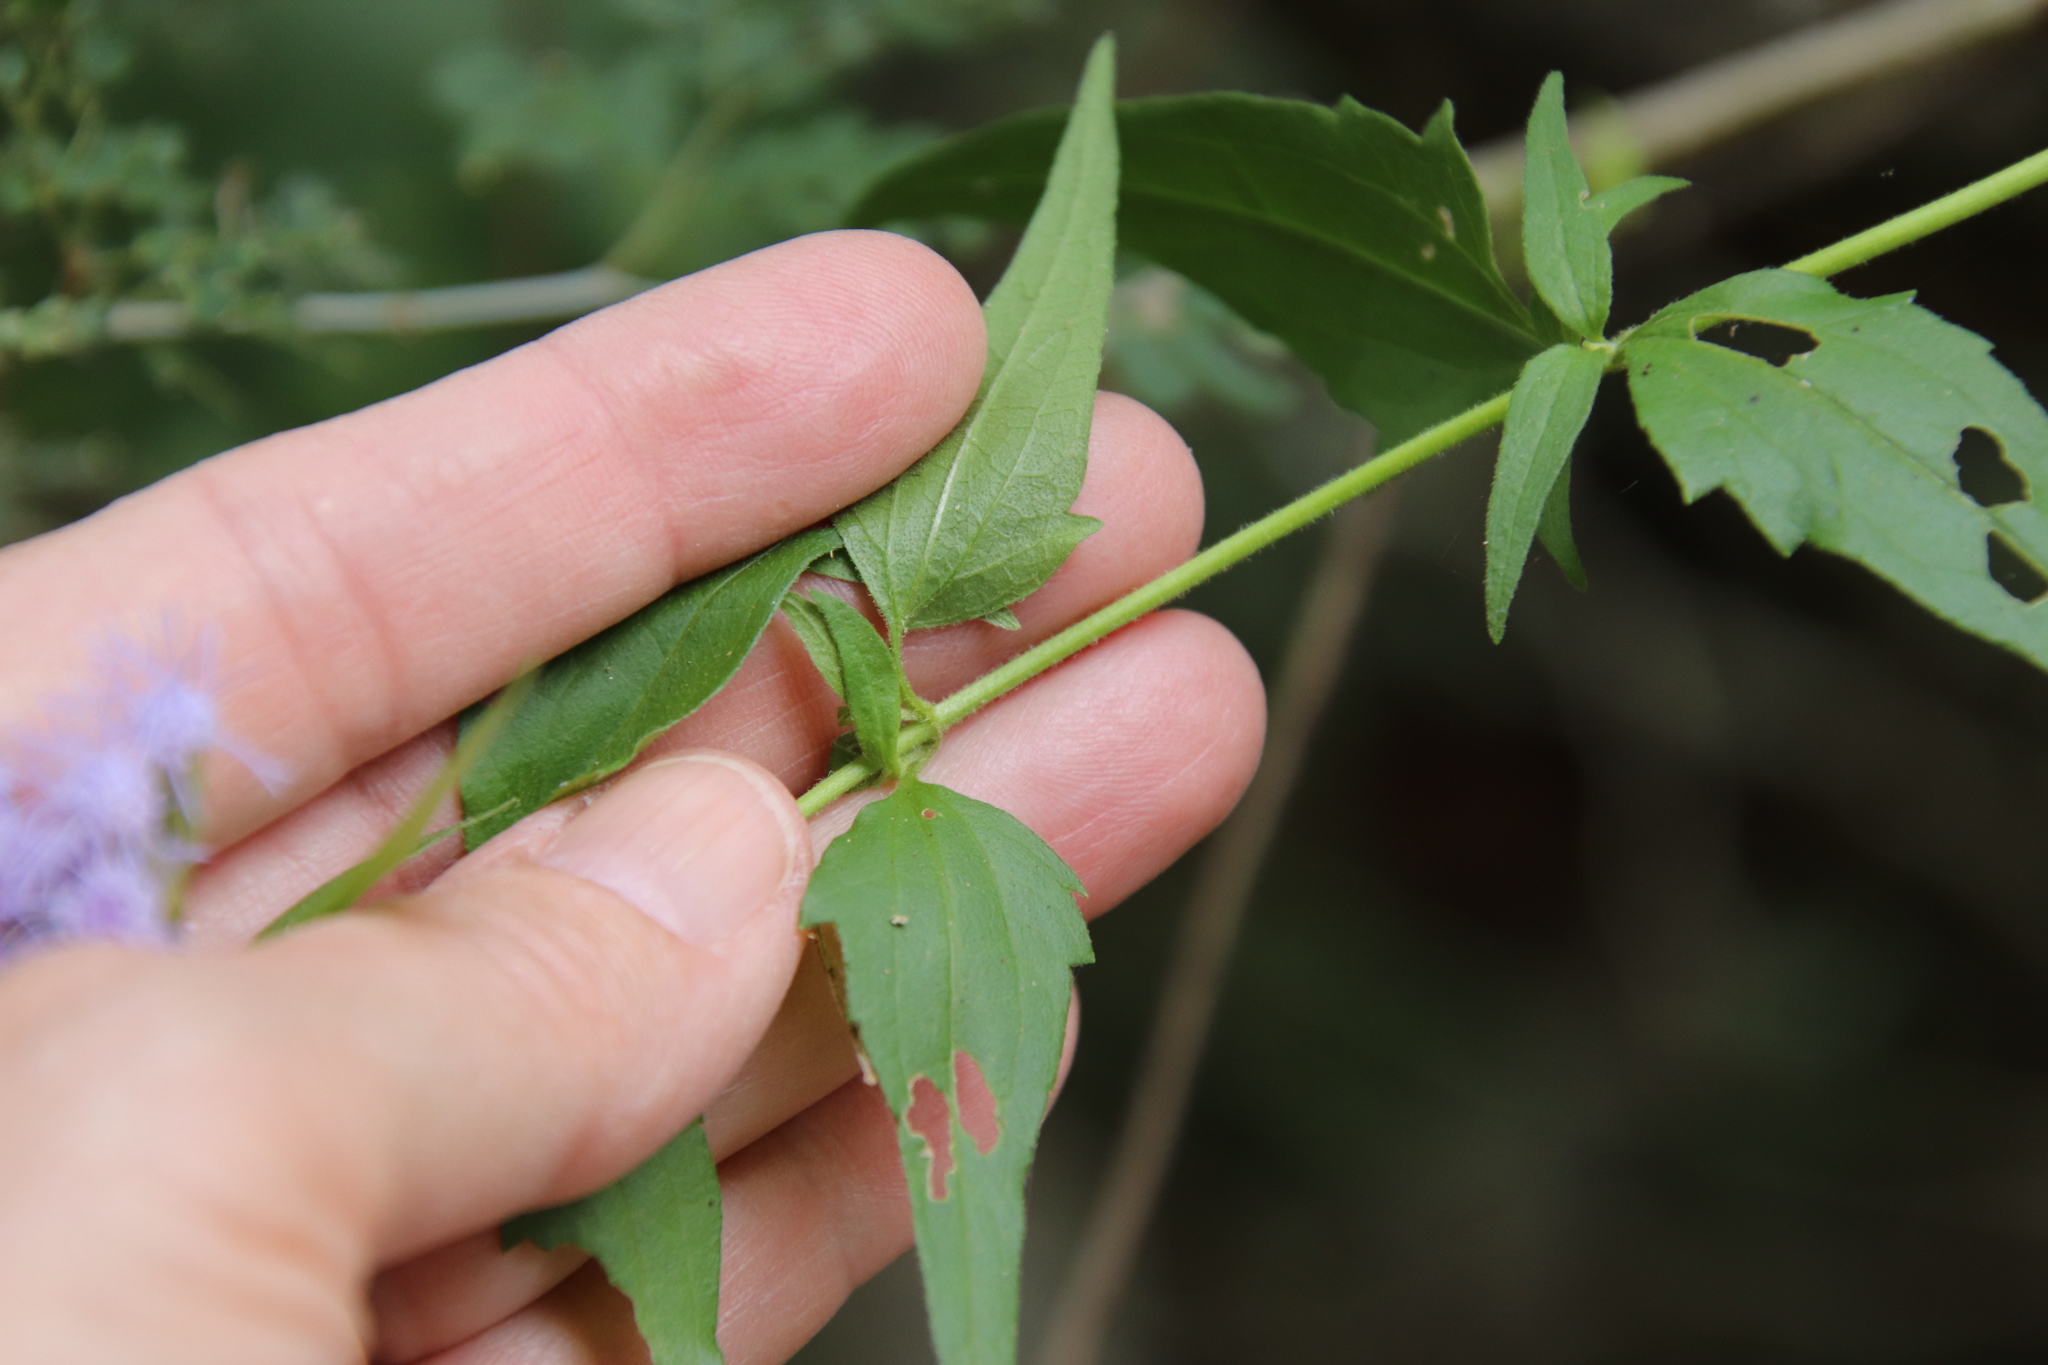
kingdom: Plantae
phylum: Tracheophyta
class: Magnoliopsida
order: Asterales
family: Asteraceae
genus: Chromolaena
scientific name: Chromolaena odorata
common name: Siamweed
